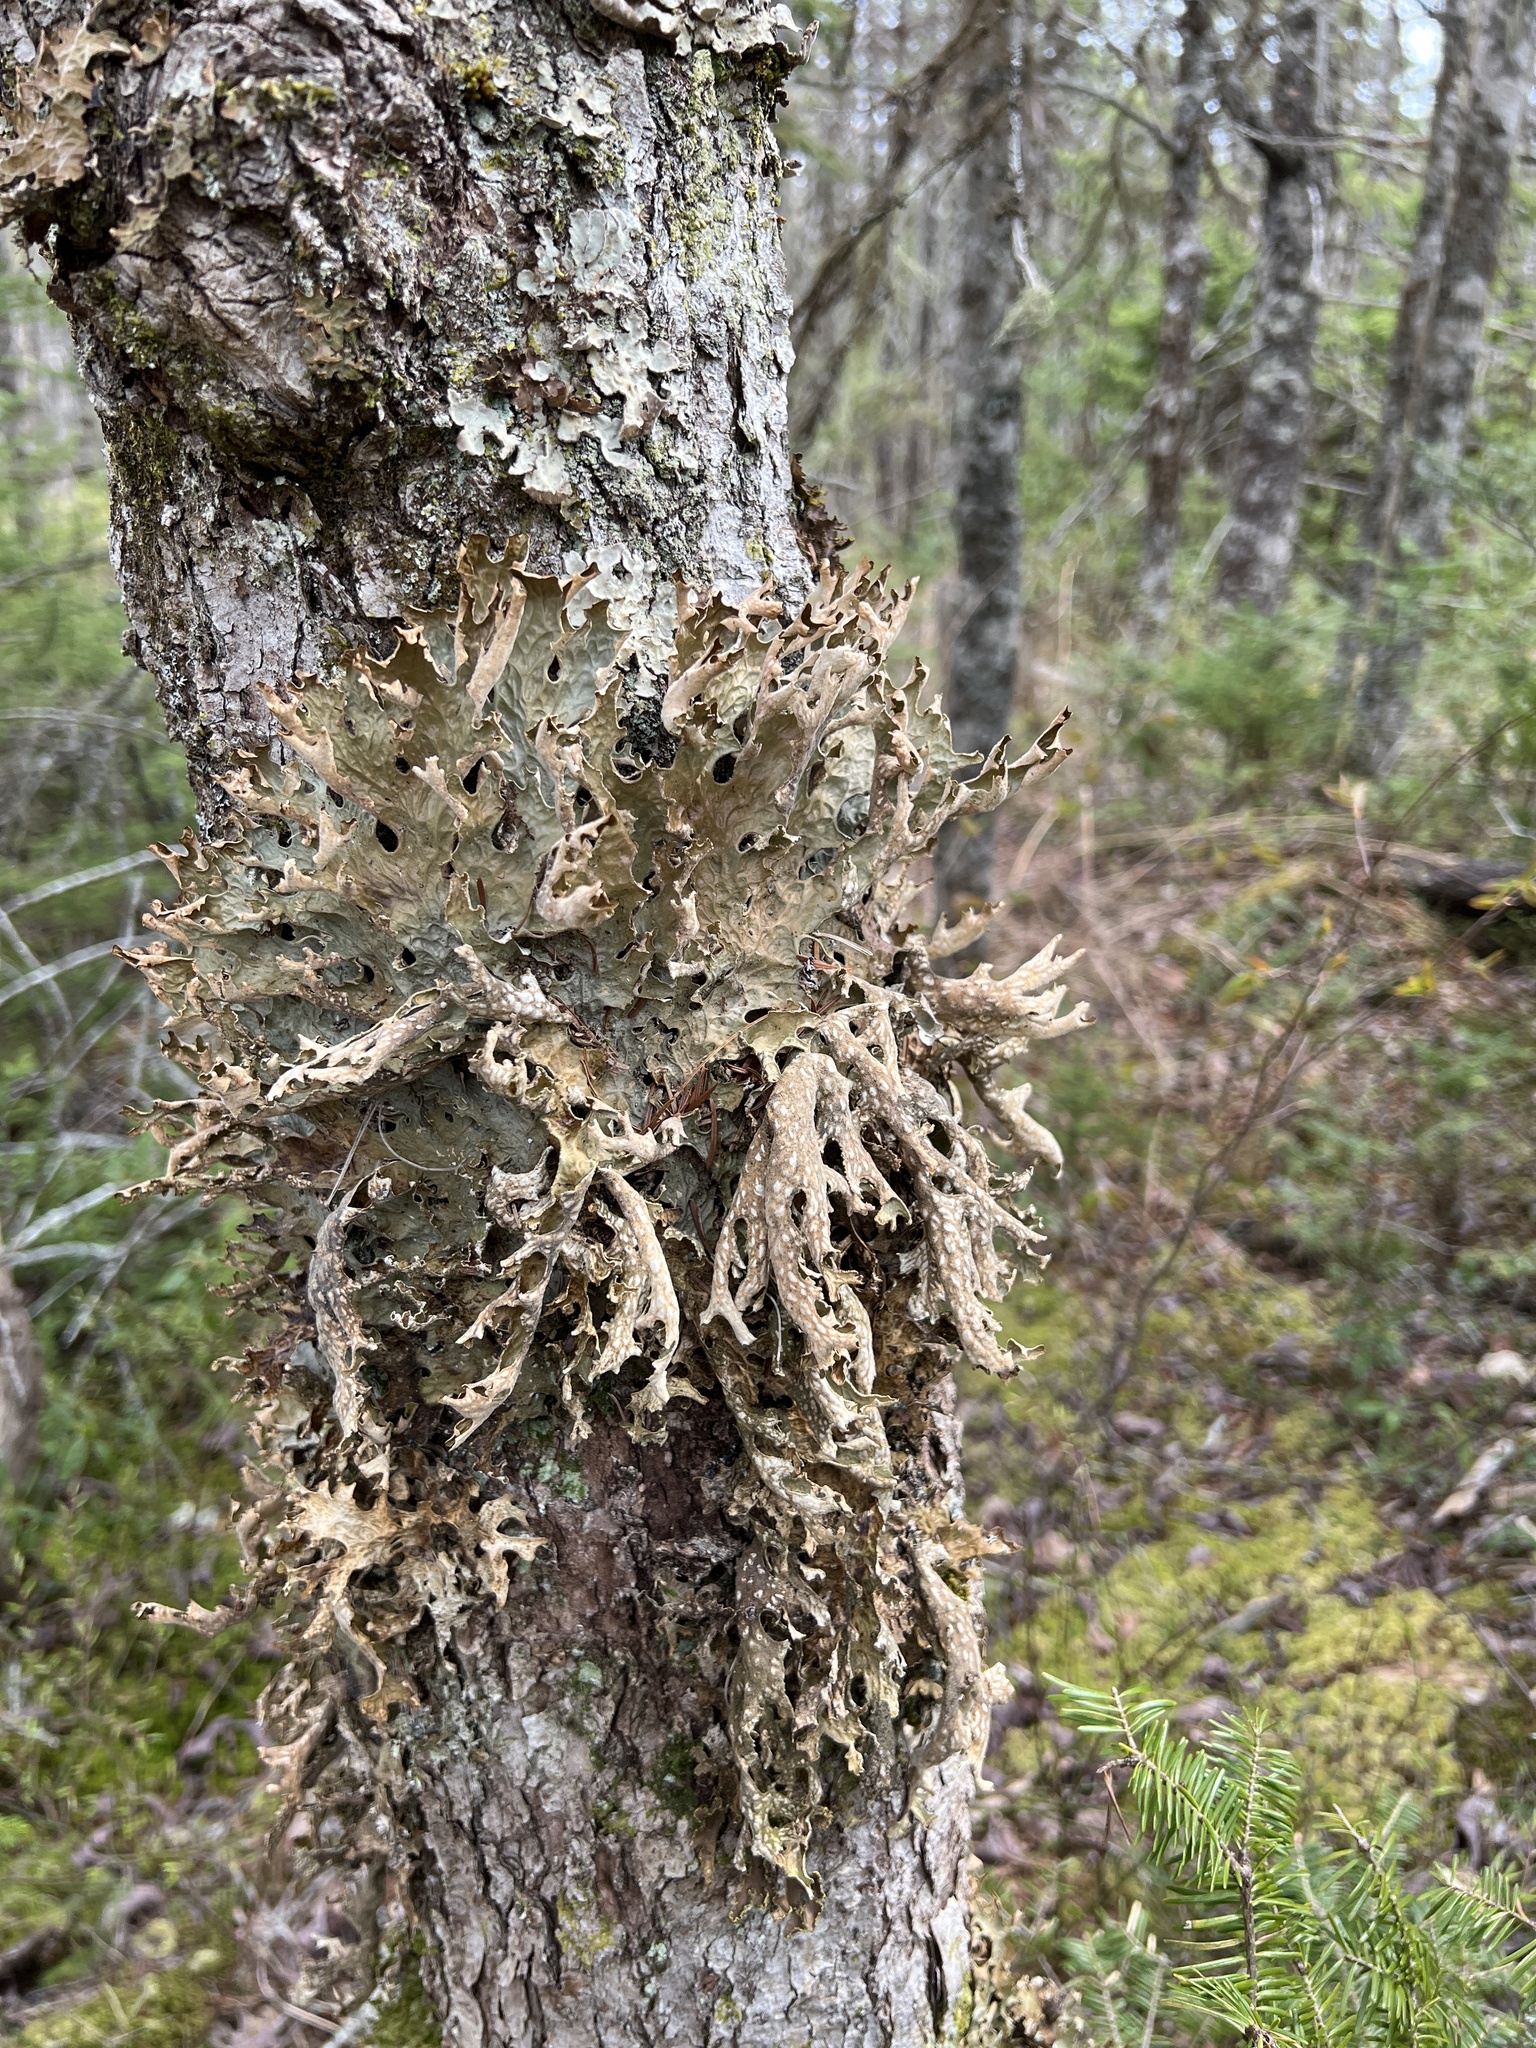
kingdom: Fungi
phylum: Ascomycota
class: Lecanoromycetes
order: Peltigerales
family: Lobariaceae
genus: Lobaria
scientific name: Lobaria pulmonaria
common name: Lungwort
